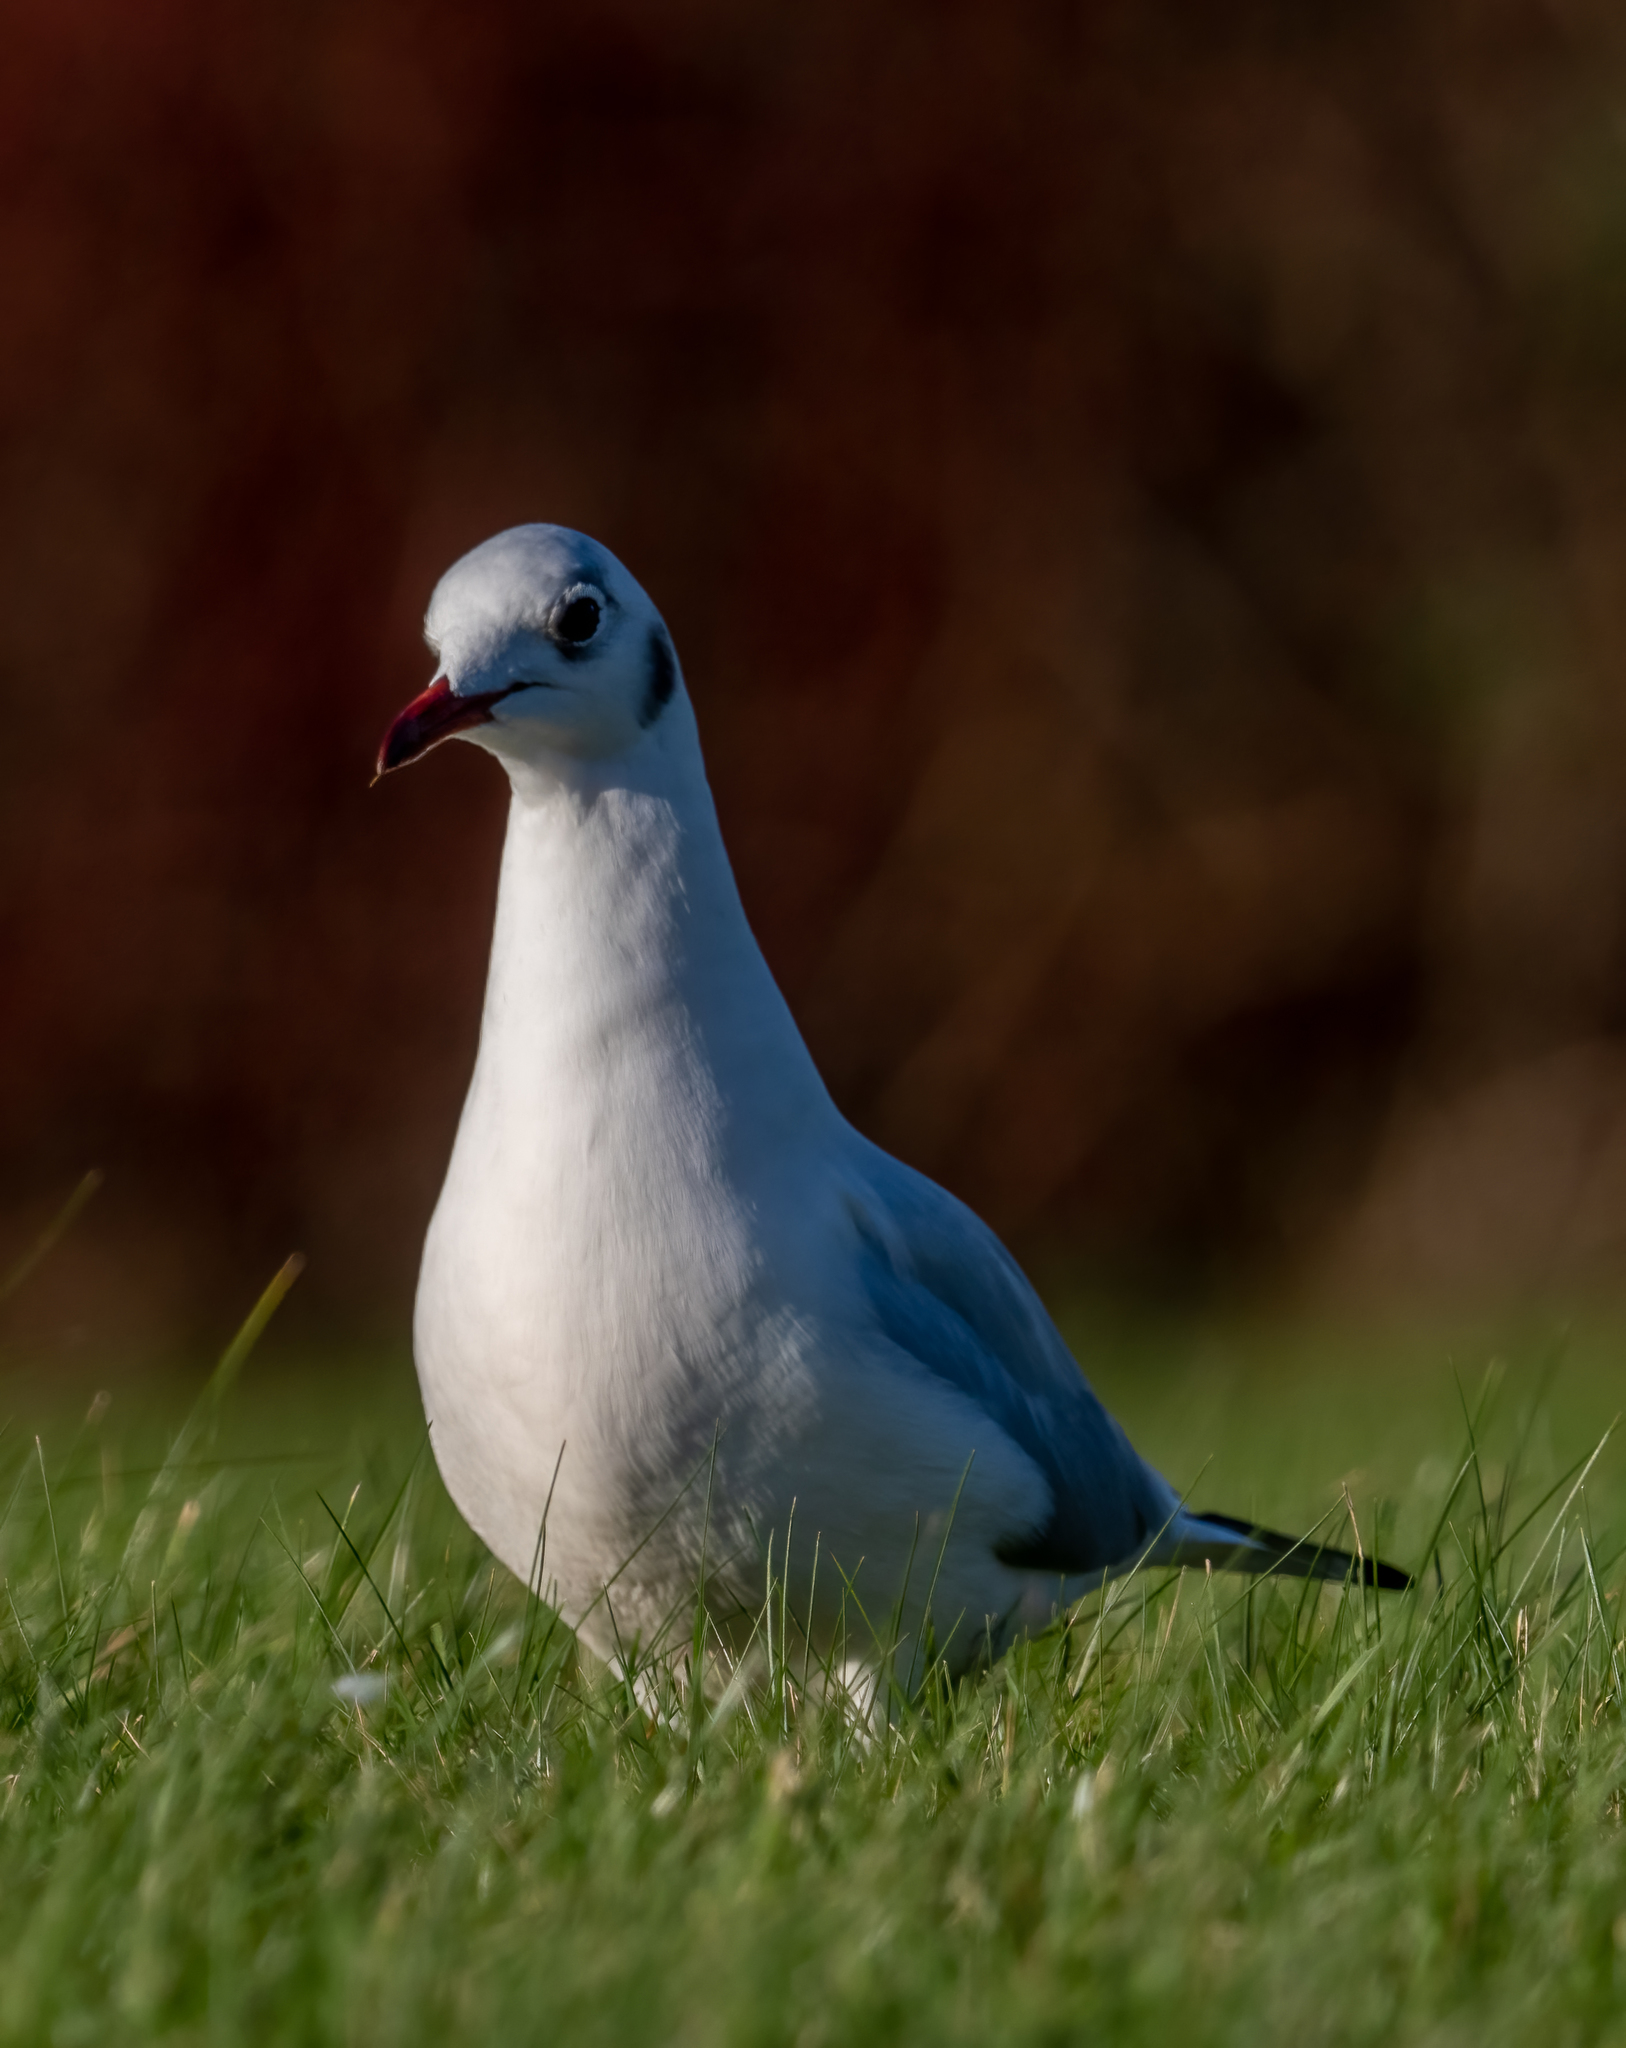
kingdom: Animalia
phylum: Chordata
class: Aves
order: Charadriiformes
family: Laridae
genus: Chroicocephalus
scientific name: Chroicocephalus ridibundus
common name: Black-headed gull
